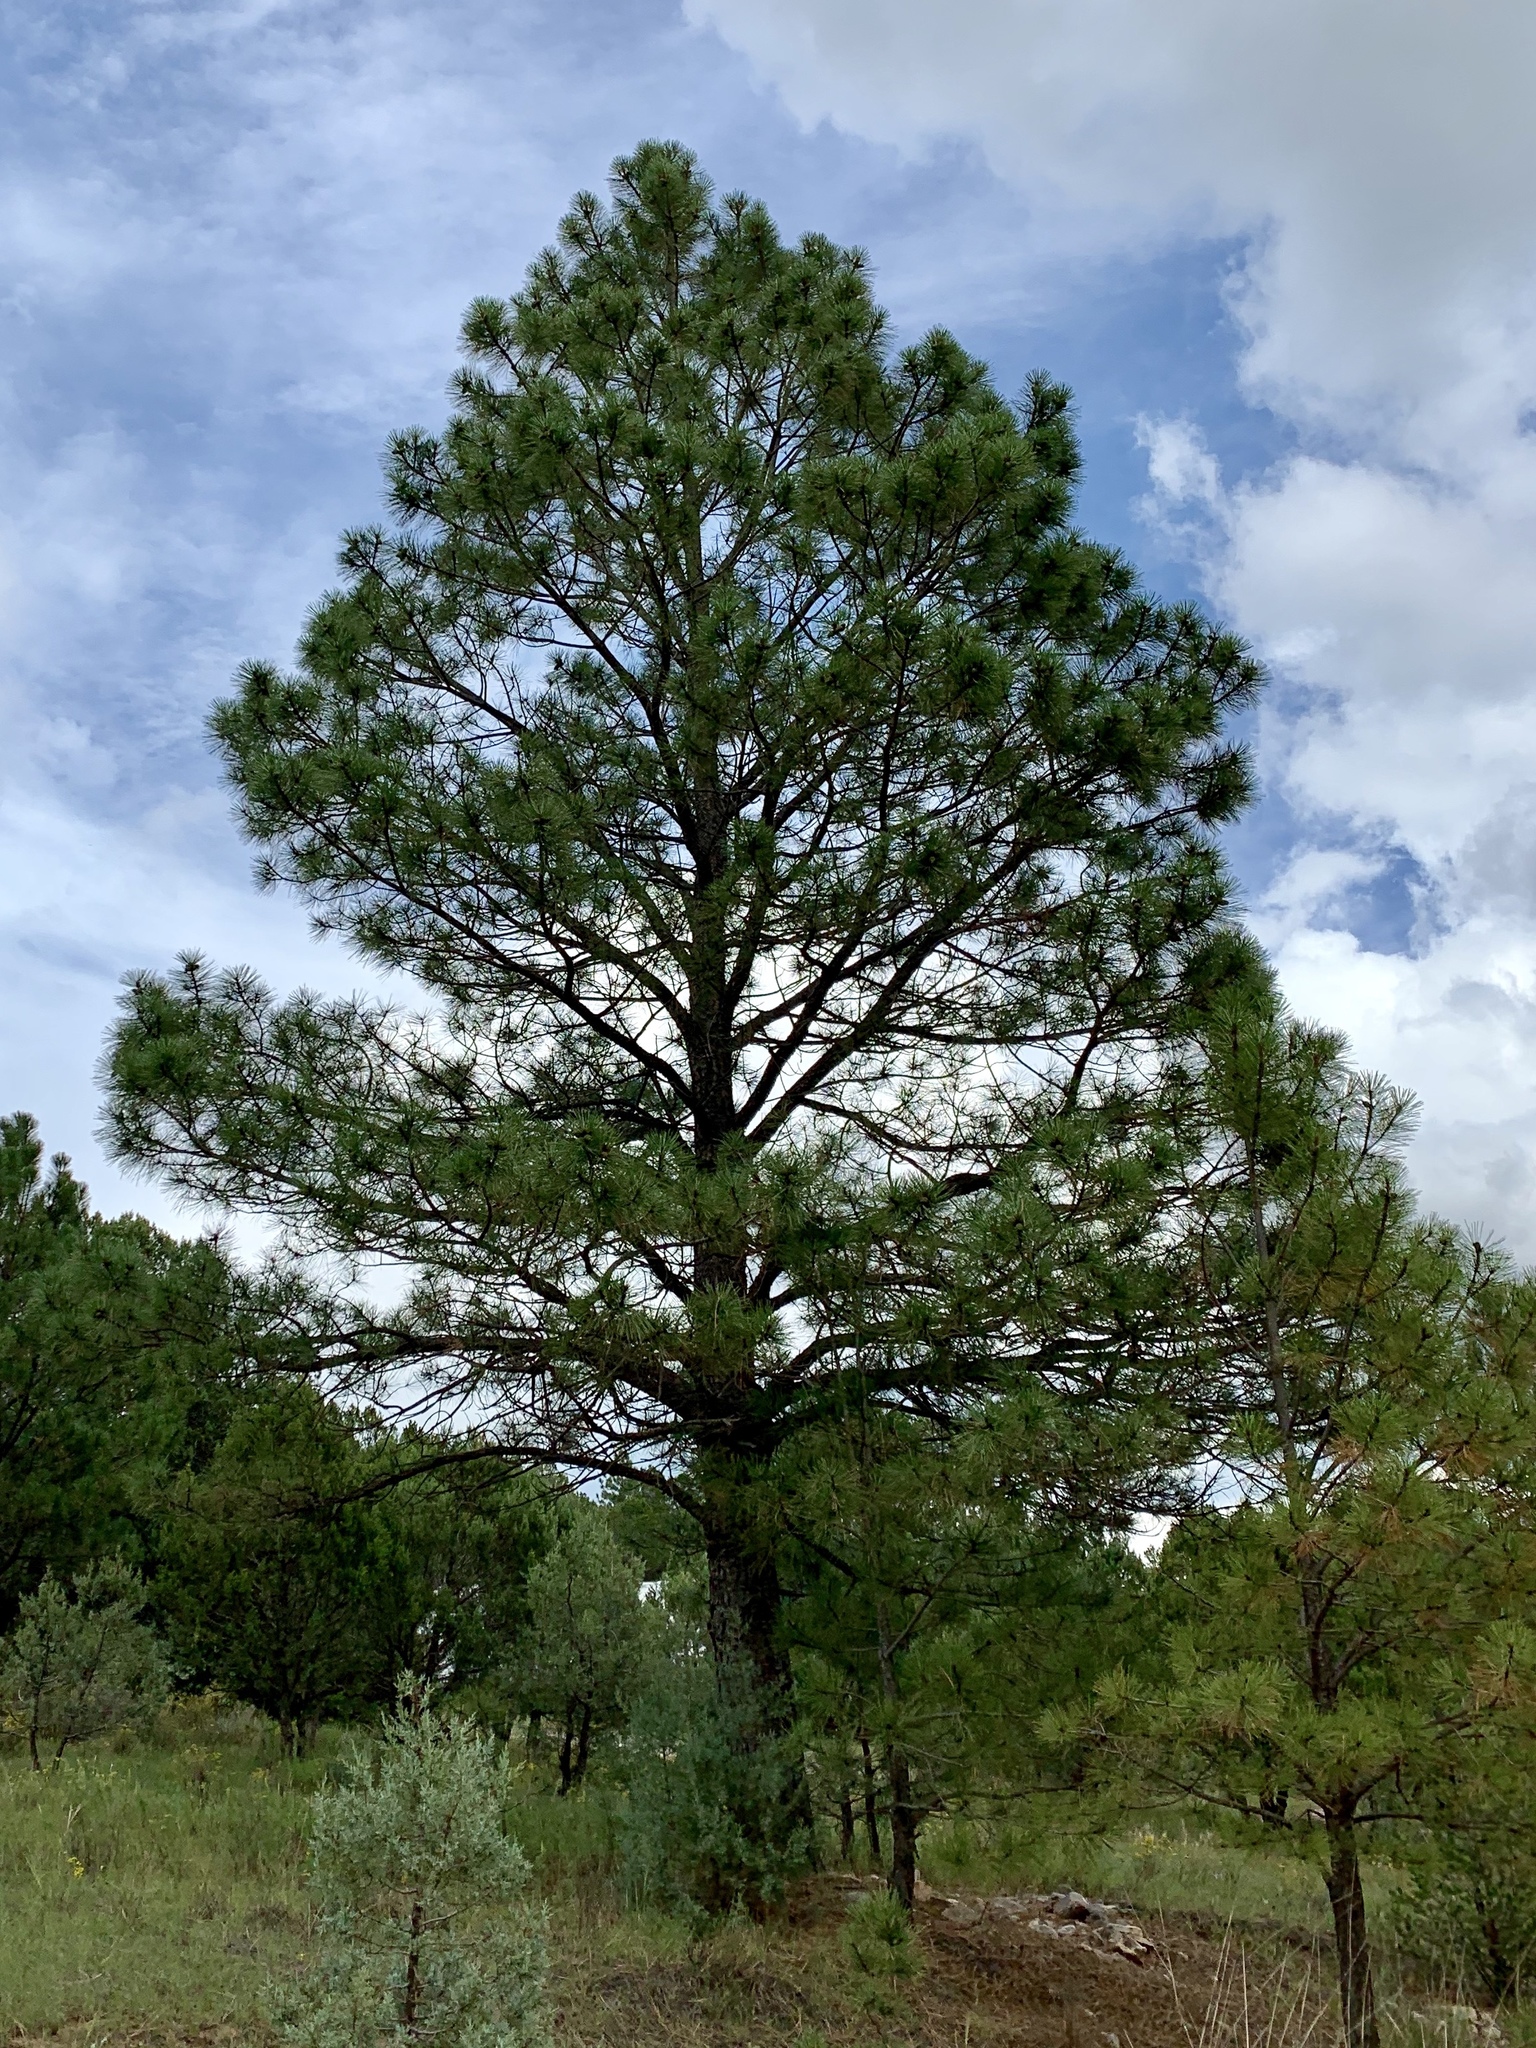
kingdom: Plantae
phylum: Tracheophyta
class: Pinopsida
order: Pinales
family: Pinaceae
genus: Pinus
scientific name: Pinus ponderosa
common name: Western yellow-pine
